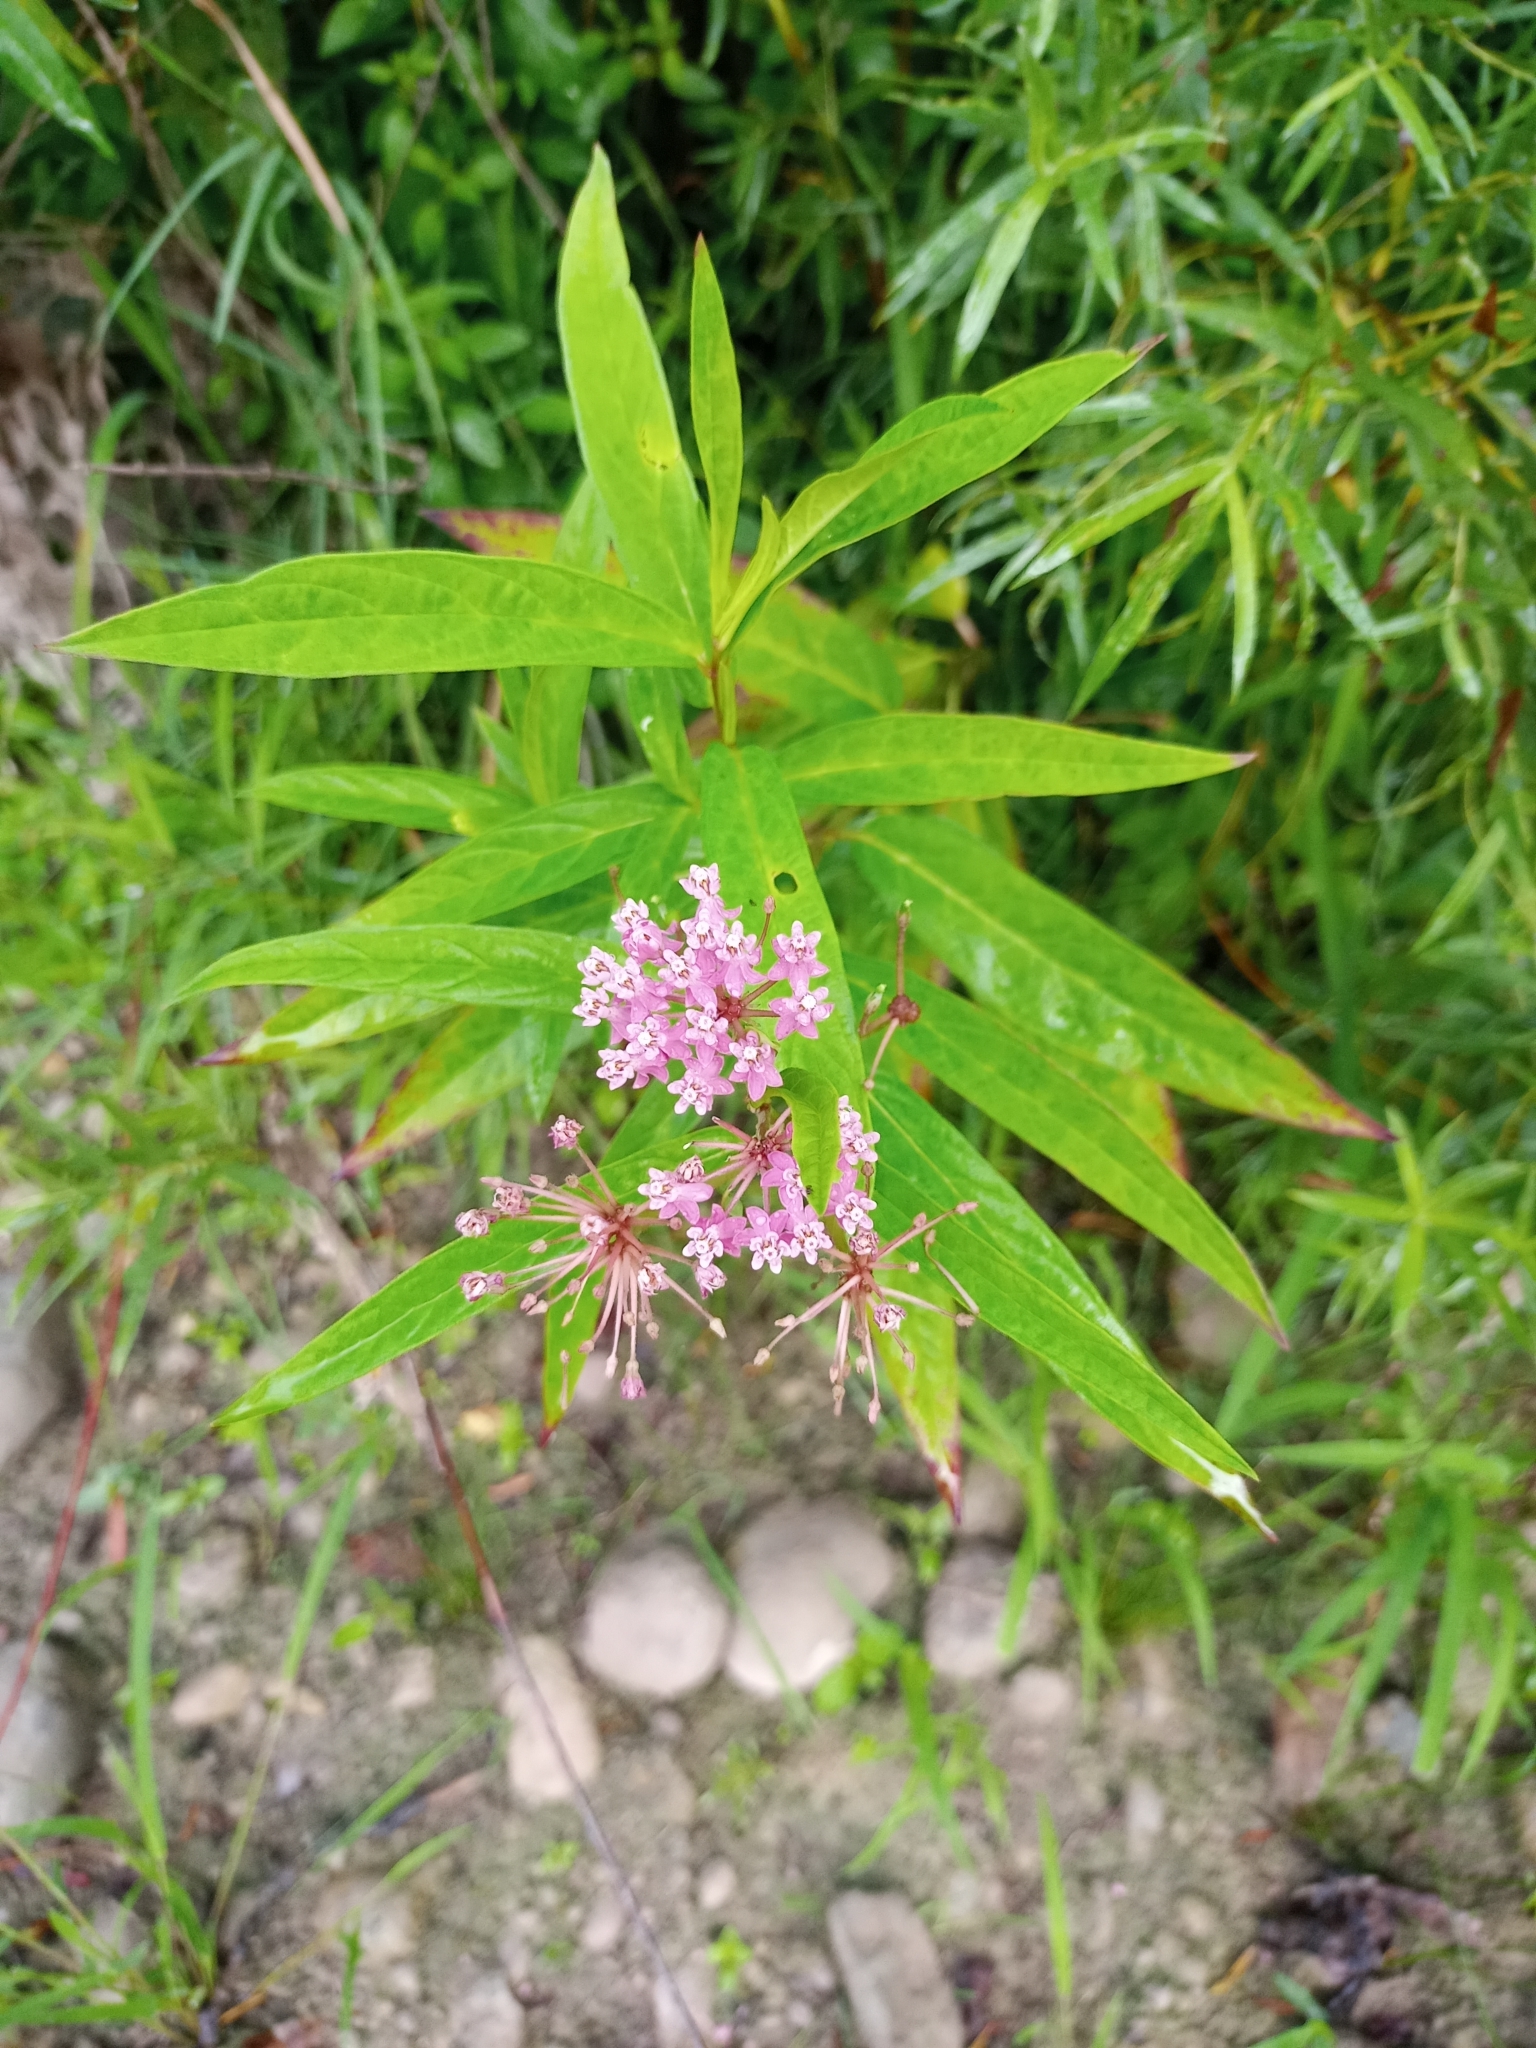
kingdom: Plantae
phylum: Tracheophyta
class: Magnoliopsida
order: Gentianales
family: Apocynaceae
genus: Asclepias
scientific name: Asclepias incarnata
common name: Swamp milkweed
